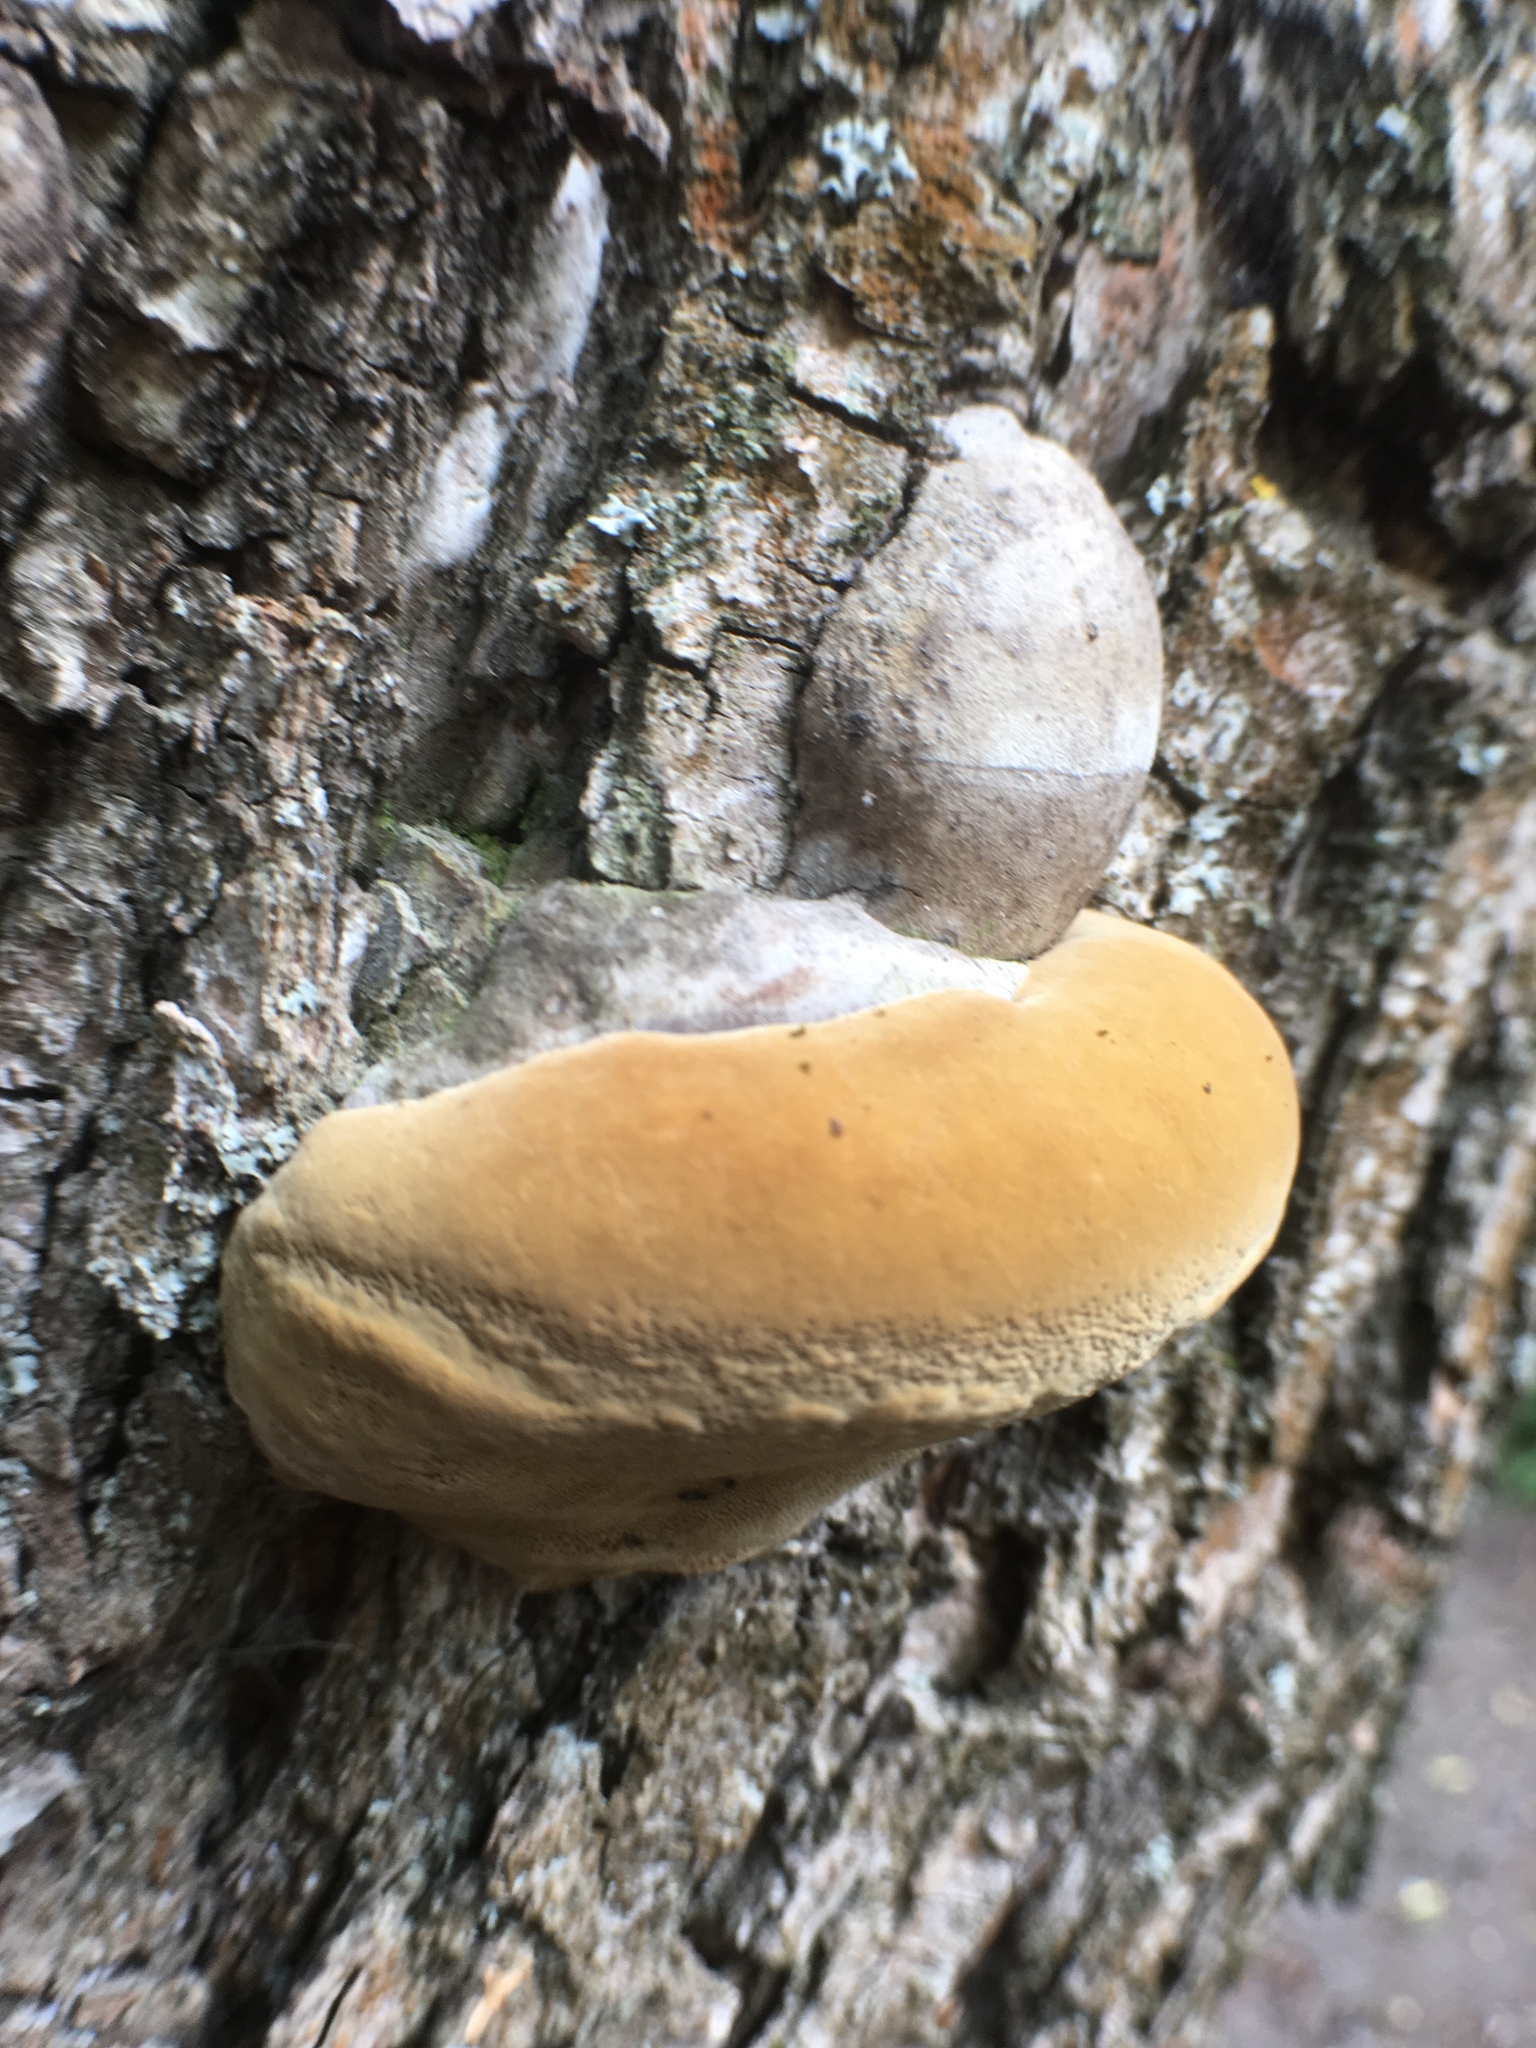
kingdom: Fungi
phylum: Basidiomycota
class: Agaricomycetes
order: Hymenochaetales
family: Hymenochaetaceae
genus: Phellinus
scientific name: Phellinus igniarius
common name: Willow bracket
